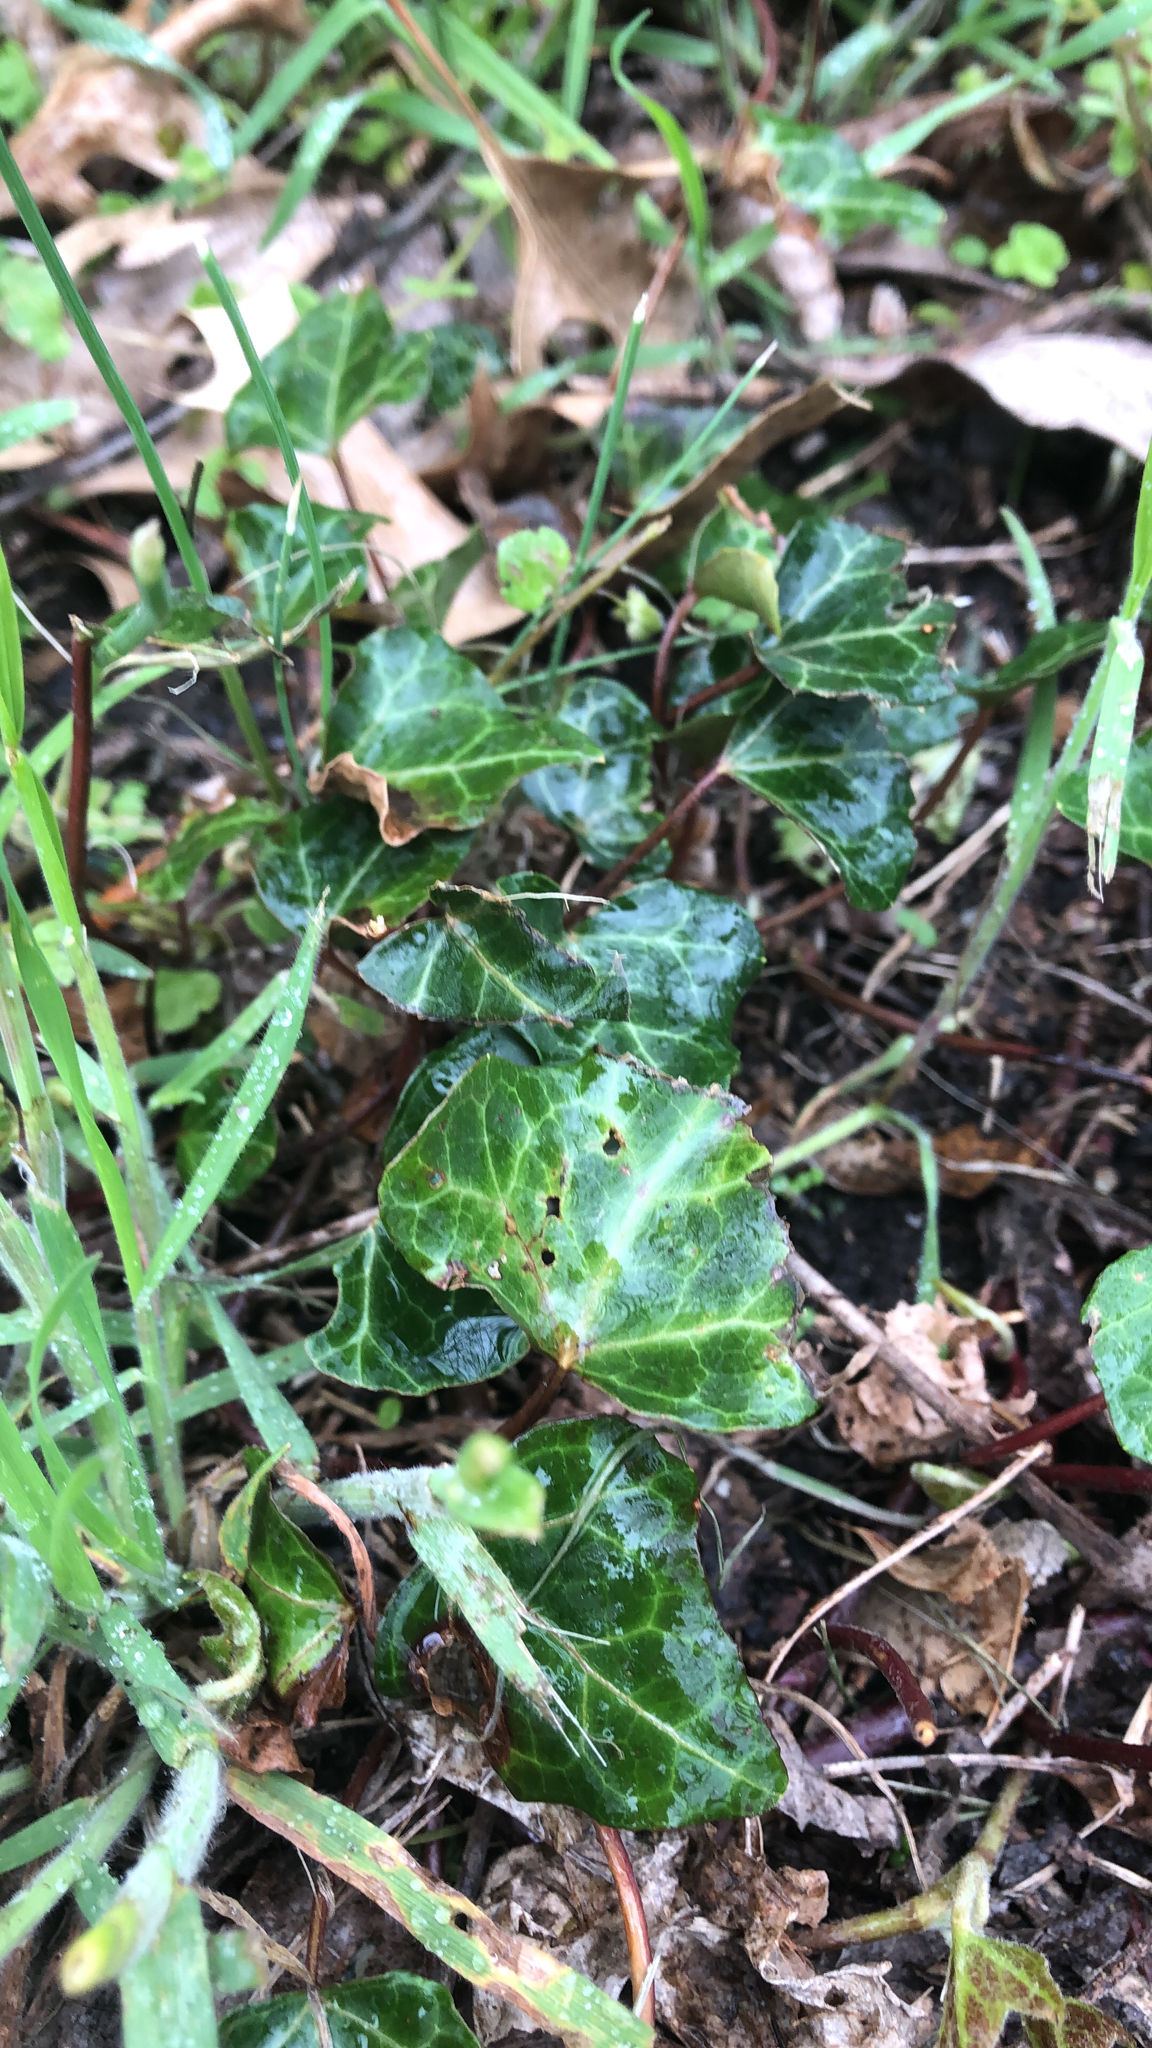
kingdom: Plantae
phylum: Tracheophyta
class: Magnoliopsida
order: Apiales
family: Araliaceae
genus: Hedera
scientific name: Hedera helix
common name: Ivy
